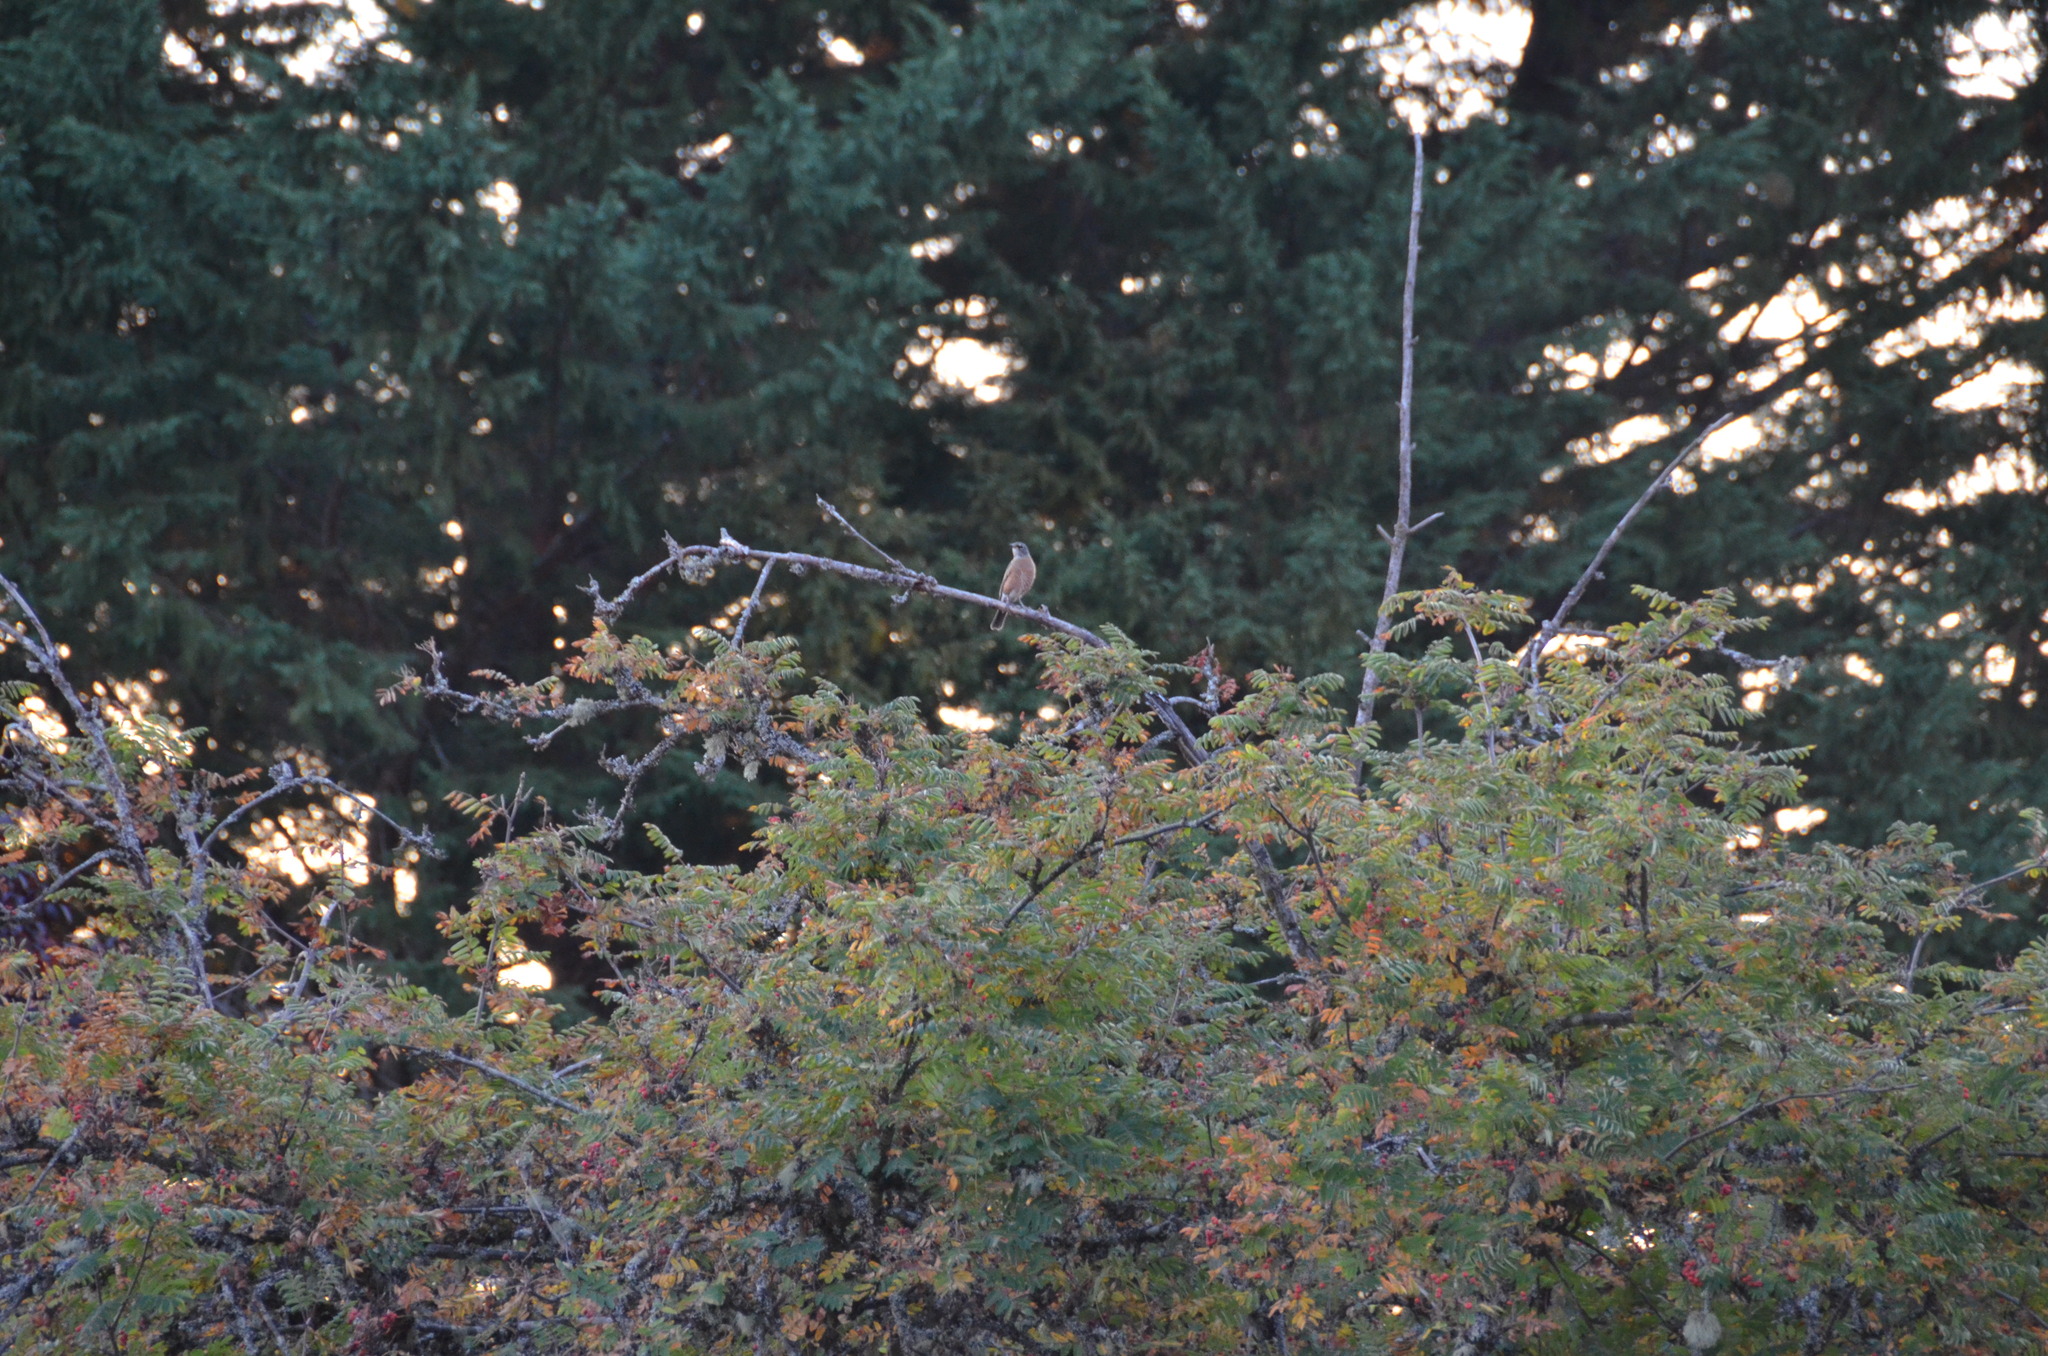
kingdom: Animalia
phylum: Chordata
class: Aves
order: Passeriformes
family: Turdidae
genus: Turdus
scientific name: Turdus migratorius
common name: American robin
